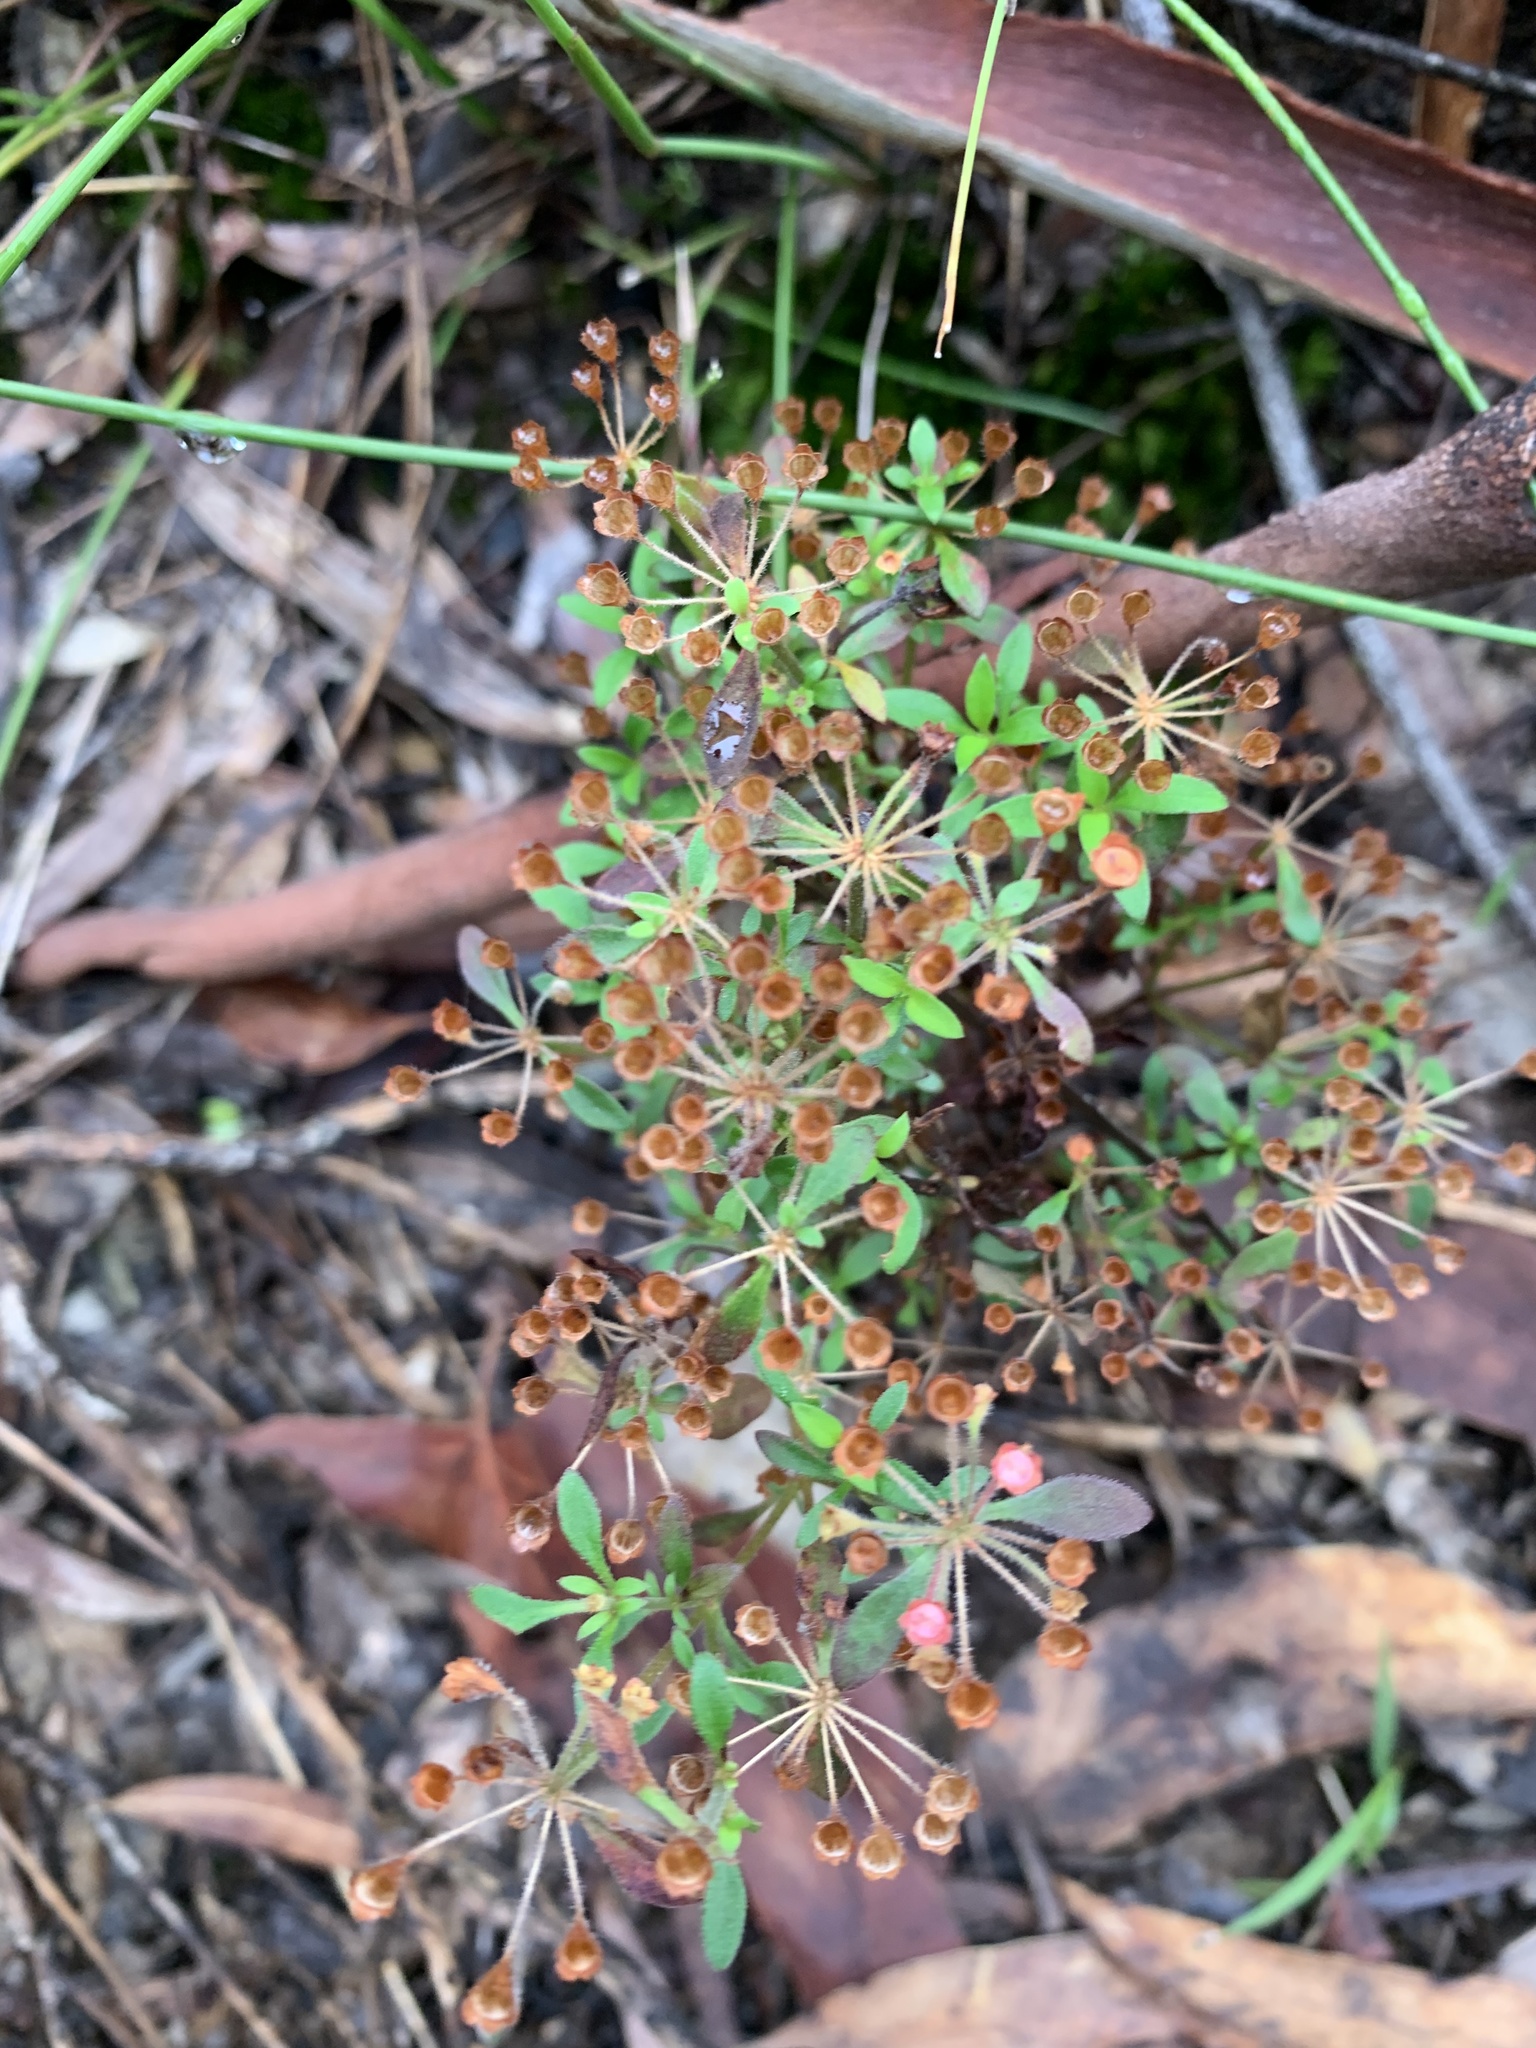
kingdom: Plantae
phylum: Tracheophyta
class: Magnoliopsida
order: Gentianales
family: Rubiaceae
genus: Pomax
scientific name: Pomax umbellata
